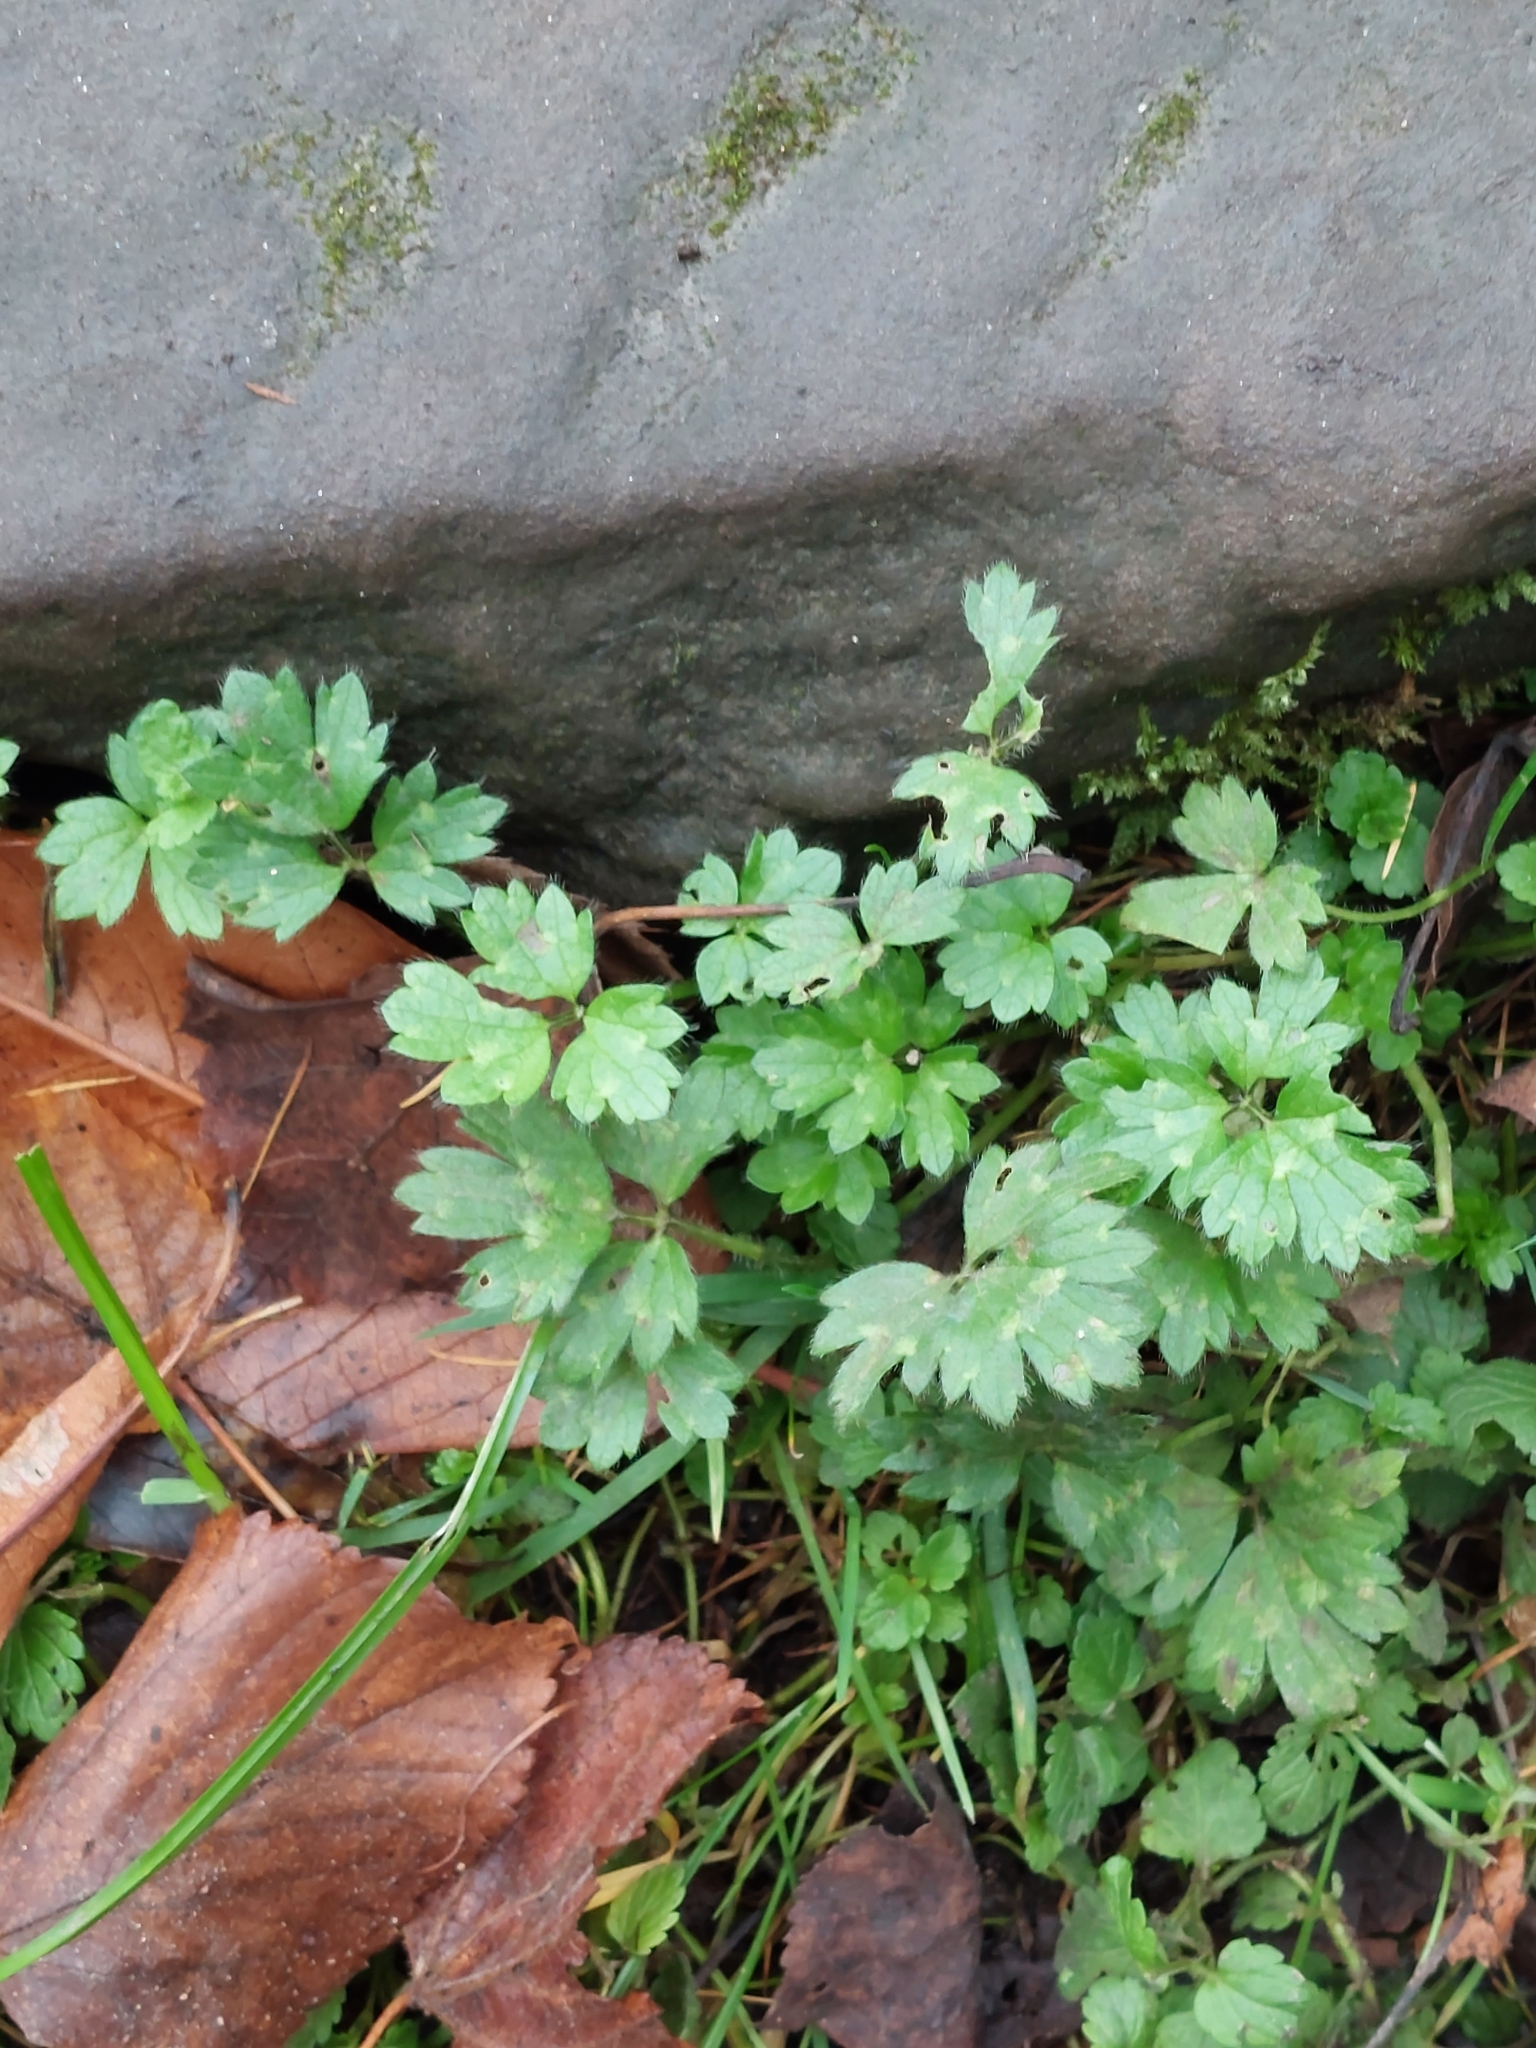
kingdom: Plantae
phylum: Tracheophyta
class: Magnoliopsida
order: Ranunculales
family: Ranunculaceae
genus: Ranunculus
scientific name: Ranunculus repens
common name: Creeping buttercup
